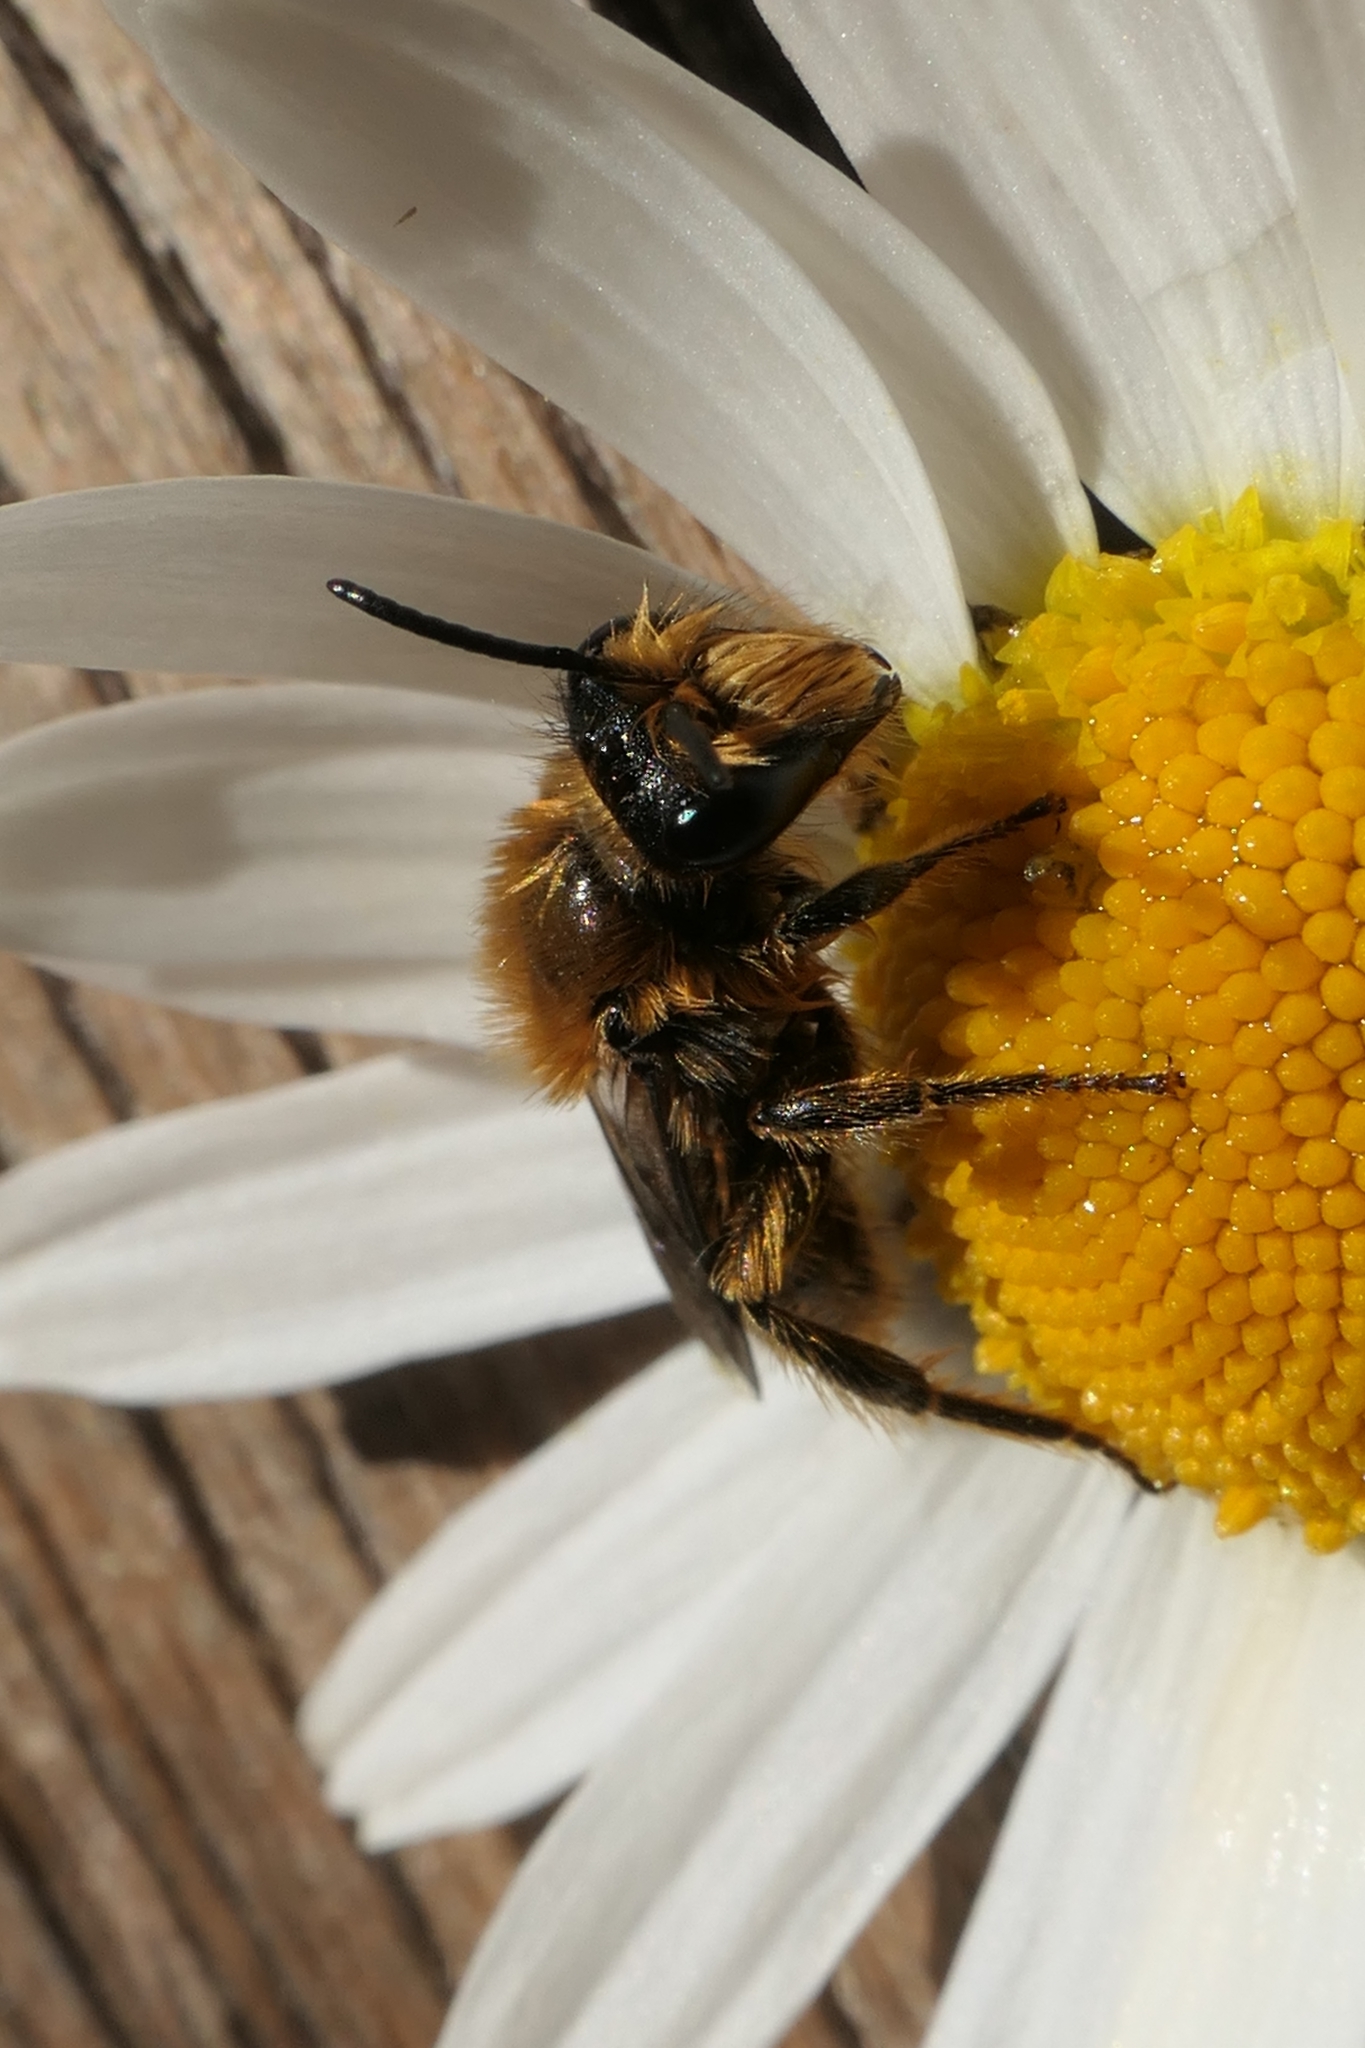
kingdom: Animalia
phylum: Arthropoda
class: Insecta
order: Hymenoptera
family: Colletidae
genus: Leioproctus
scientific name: Leioproctus fulvescens
